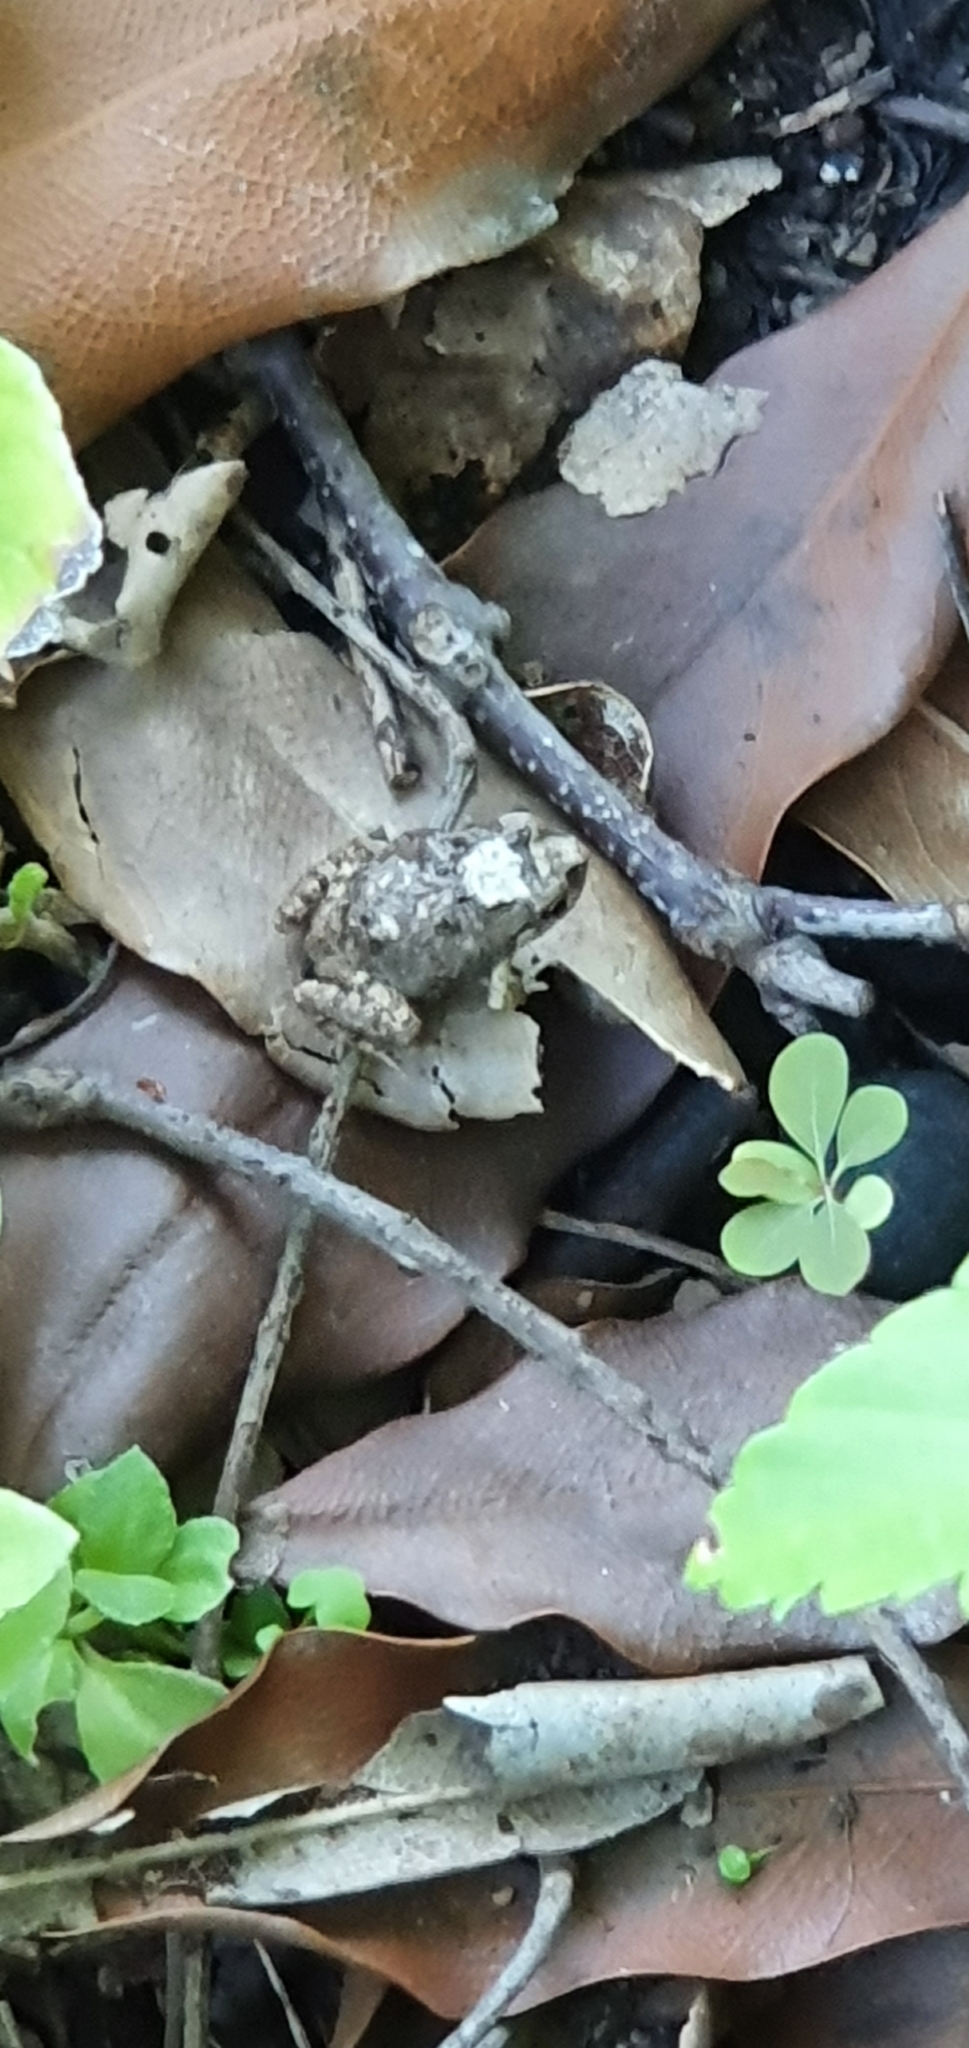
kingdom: Animalia
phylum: Chordata
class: Amphibia
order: Anura
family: Limnodynastidae
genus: Platyplectrum
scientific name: Platyplectrum ornatum
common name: Ornate burrowing frog
